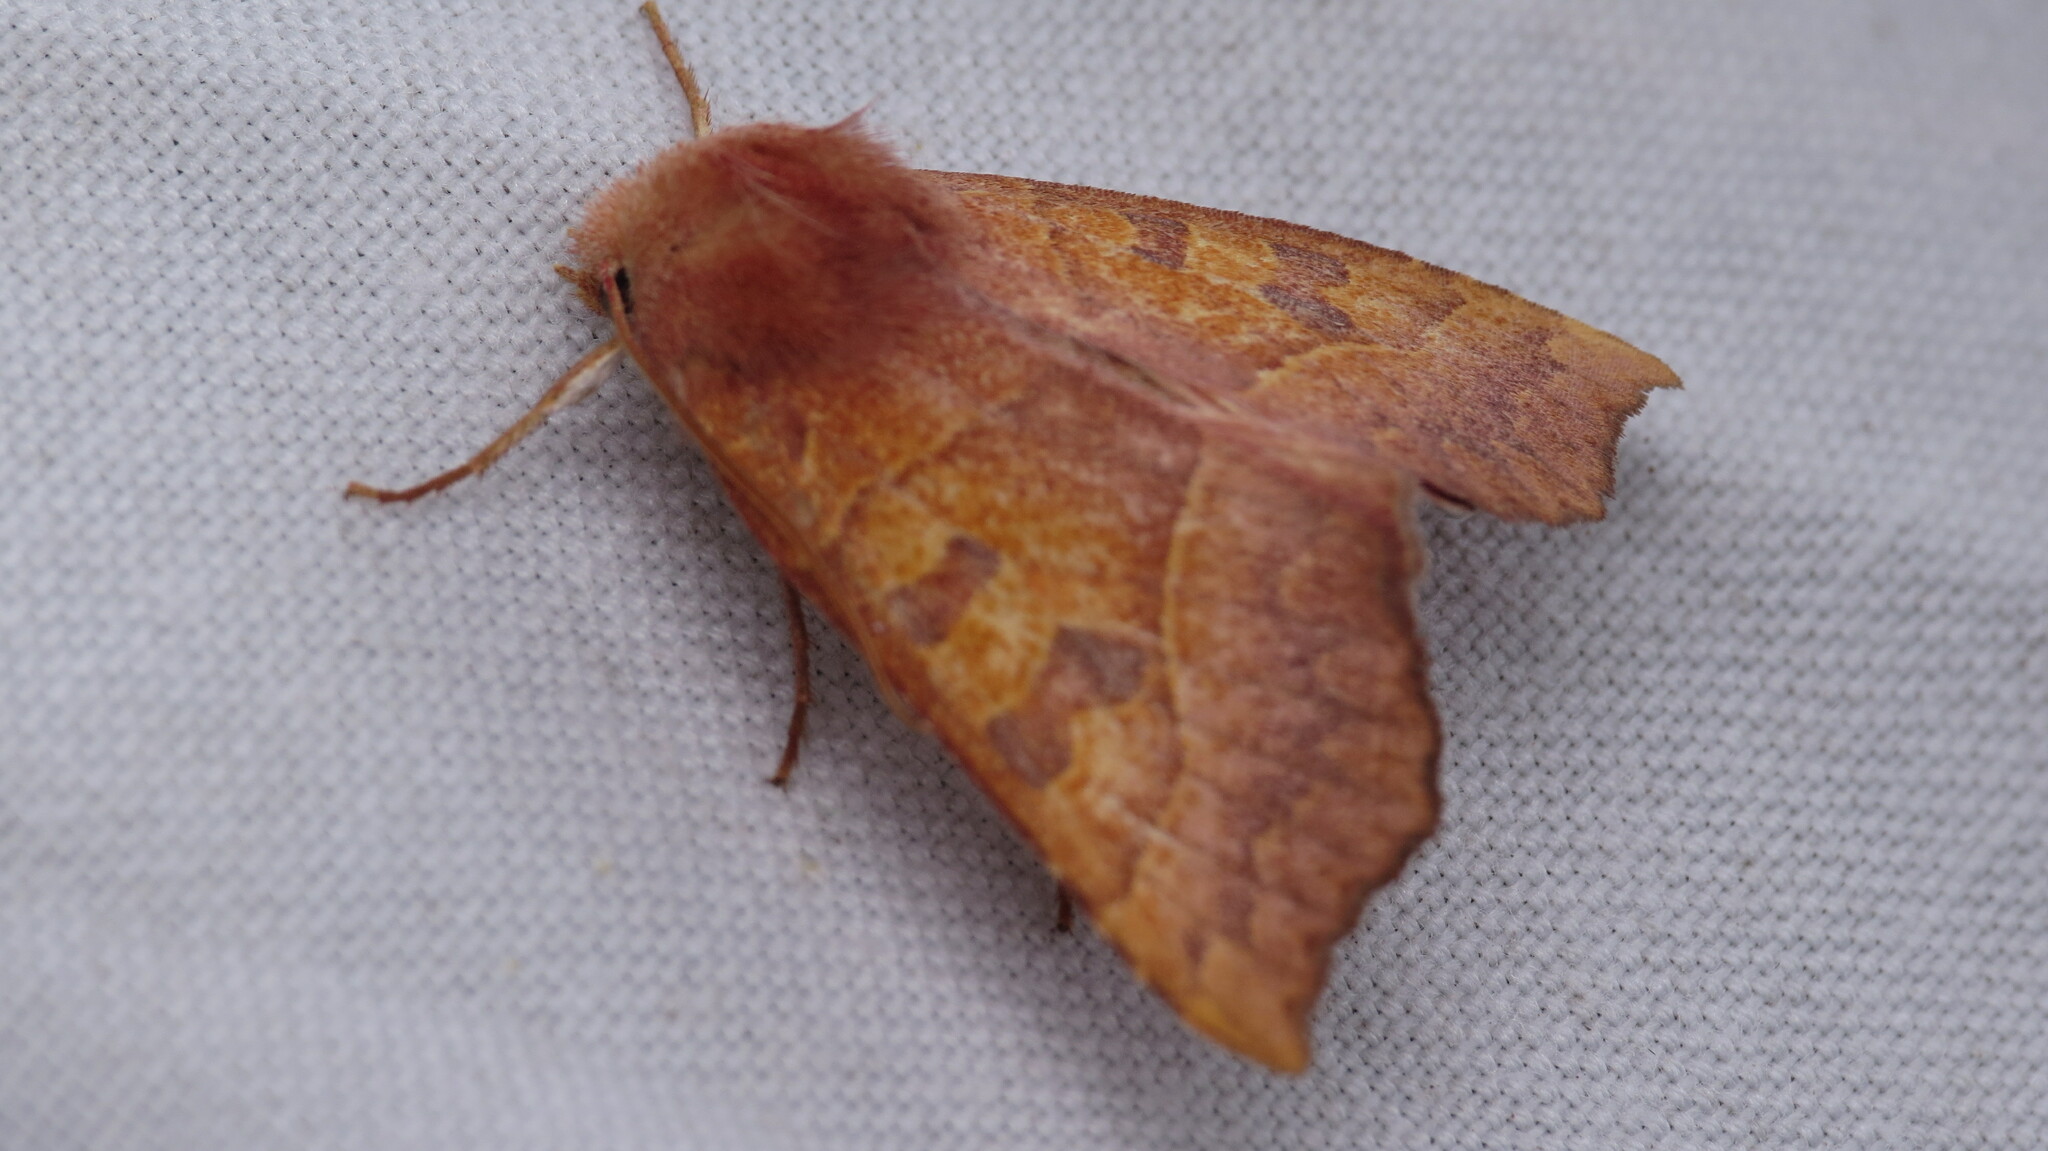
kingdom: Animalia
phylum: Arthropoda
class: Insecta
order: Lepidoptera
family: Noctuidae
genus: Eucirroedia
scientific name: Eucirroedia pampina
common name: Scalloped sallow
